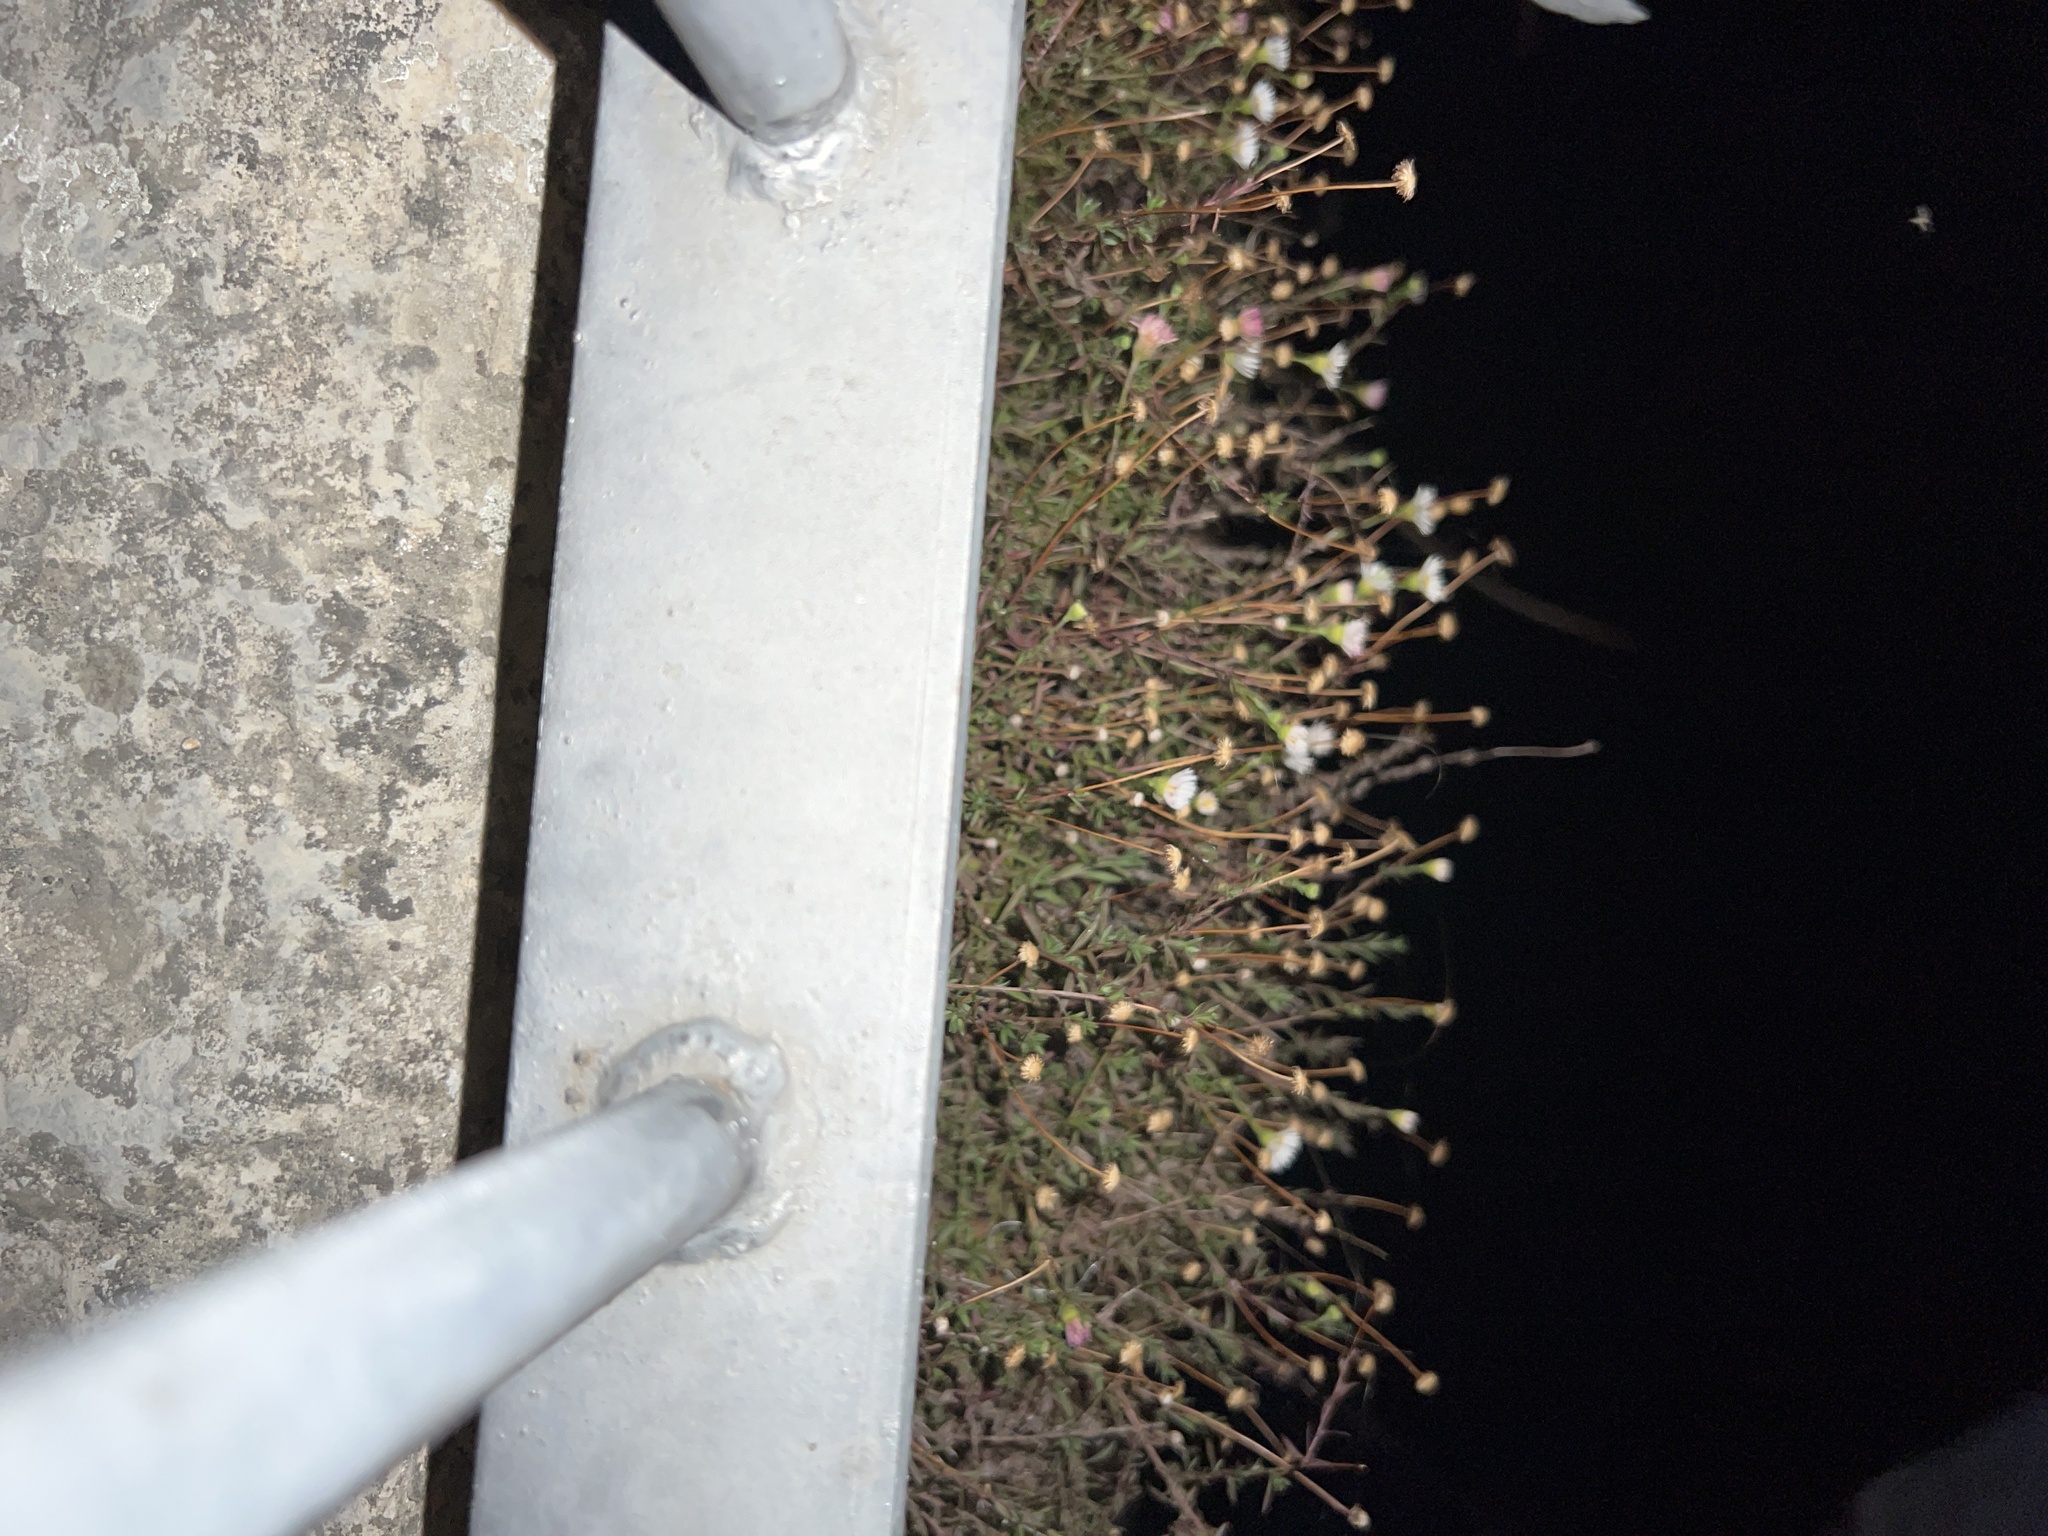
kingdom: Plantae
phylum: Tracheophyta
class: Magnoliopsida
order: Asterales
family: Asteraceae
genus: Erigeron
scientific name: Erigeron karvinskianus
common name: Mexican fleabane
